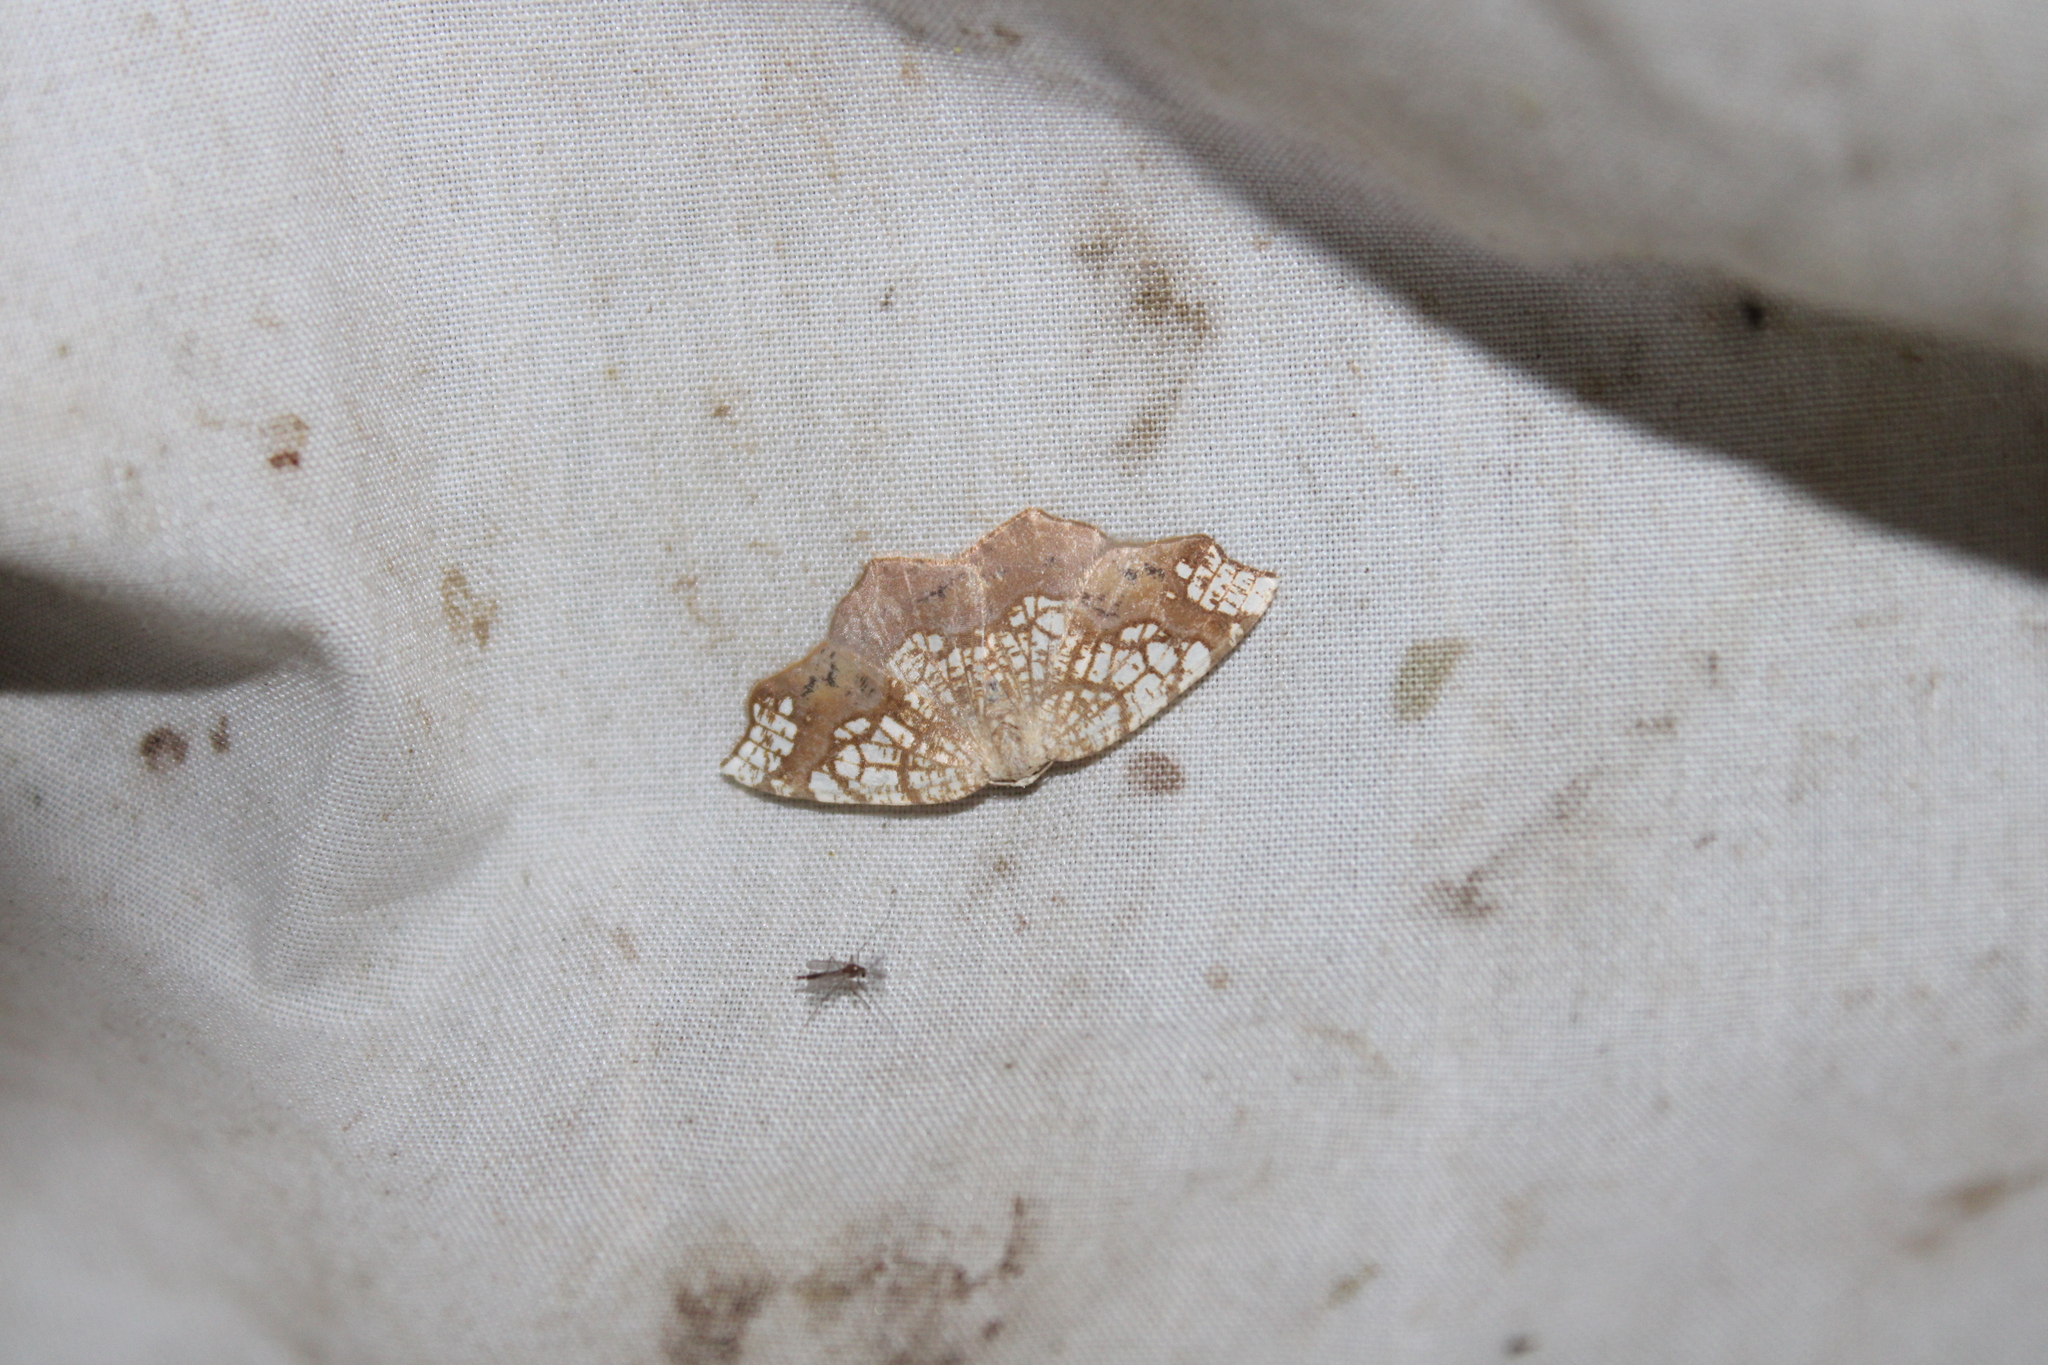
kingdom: Animalia
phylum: Arthropoda
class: Insecta
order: Lepidoptera
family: Geometridae
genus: Nematocampa
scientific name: Nematocampa resistaria
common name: Horned spanworm moth
